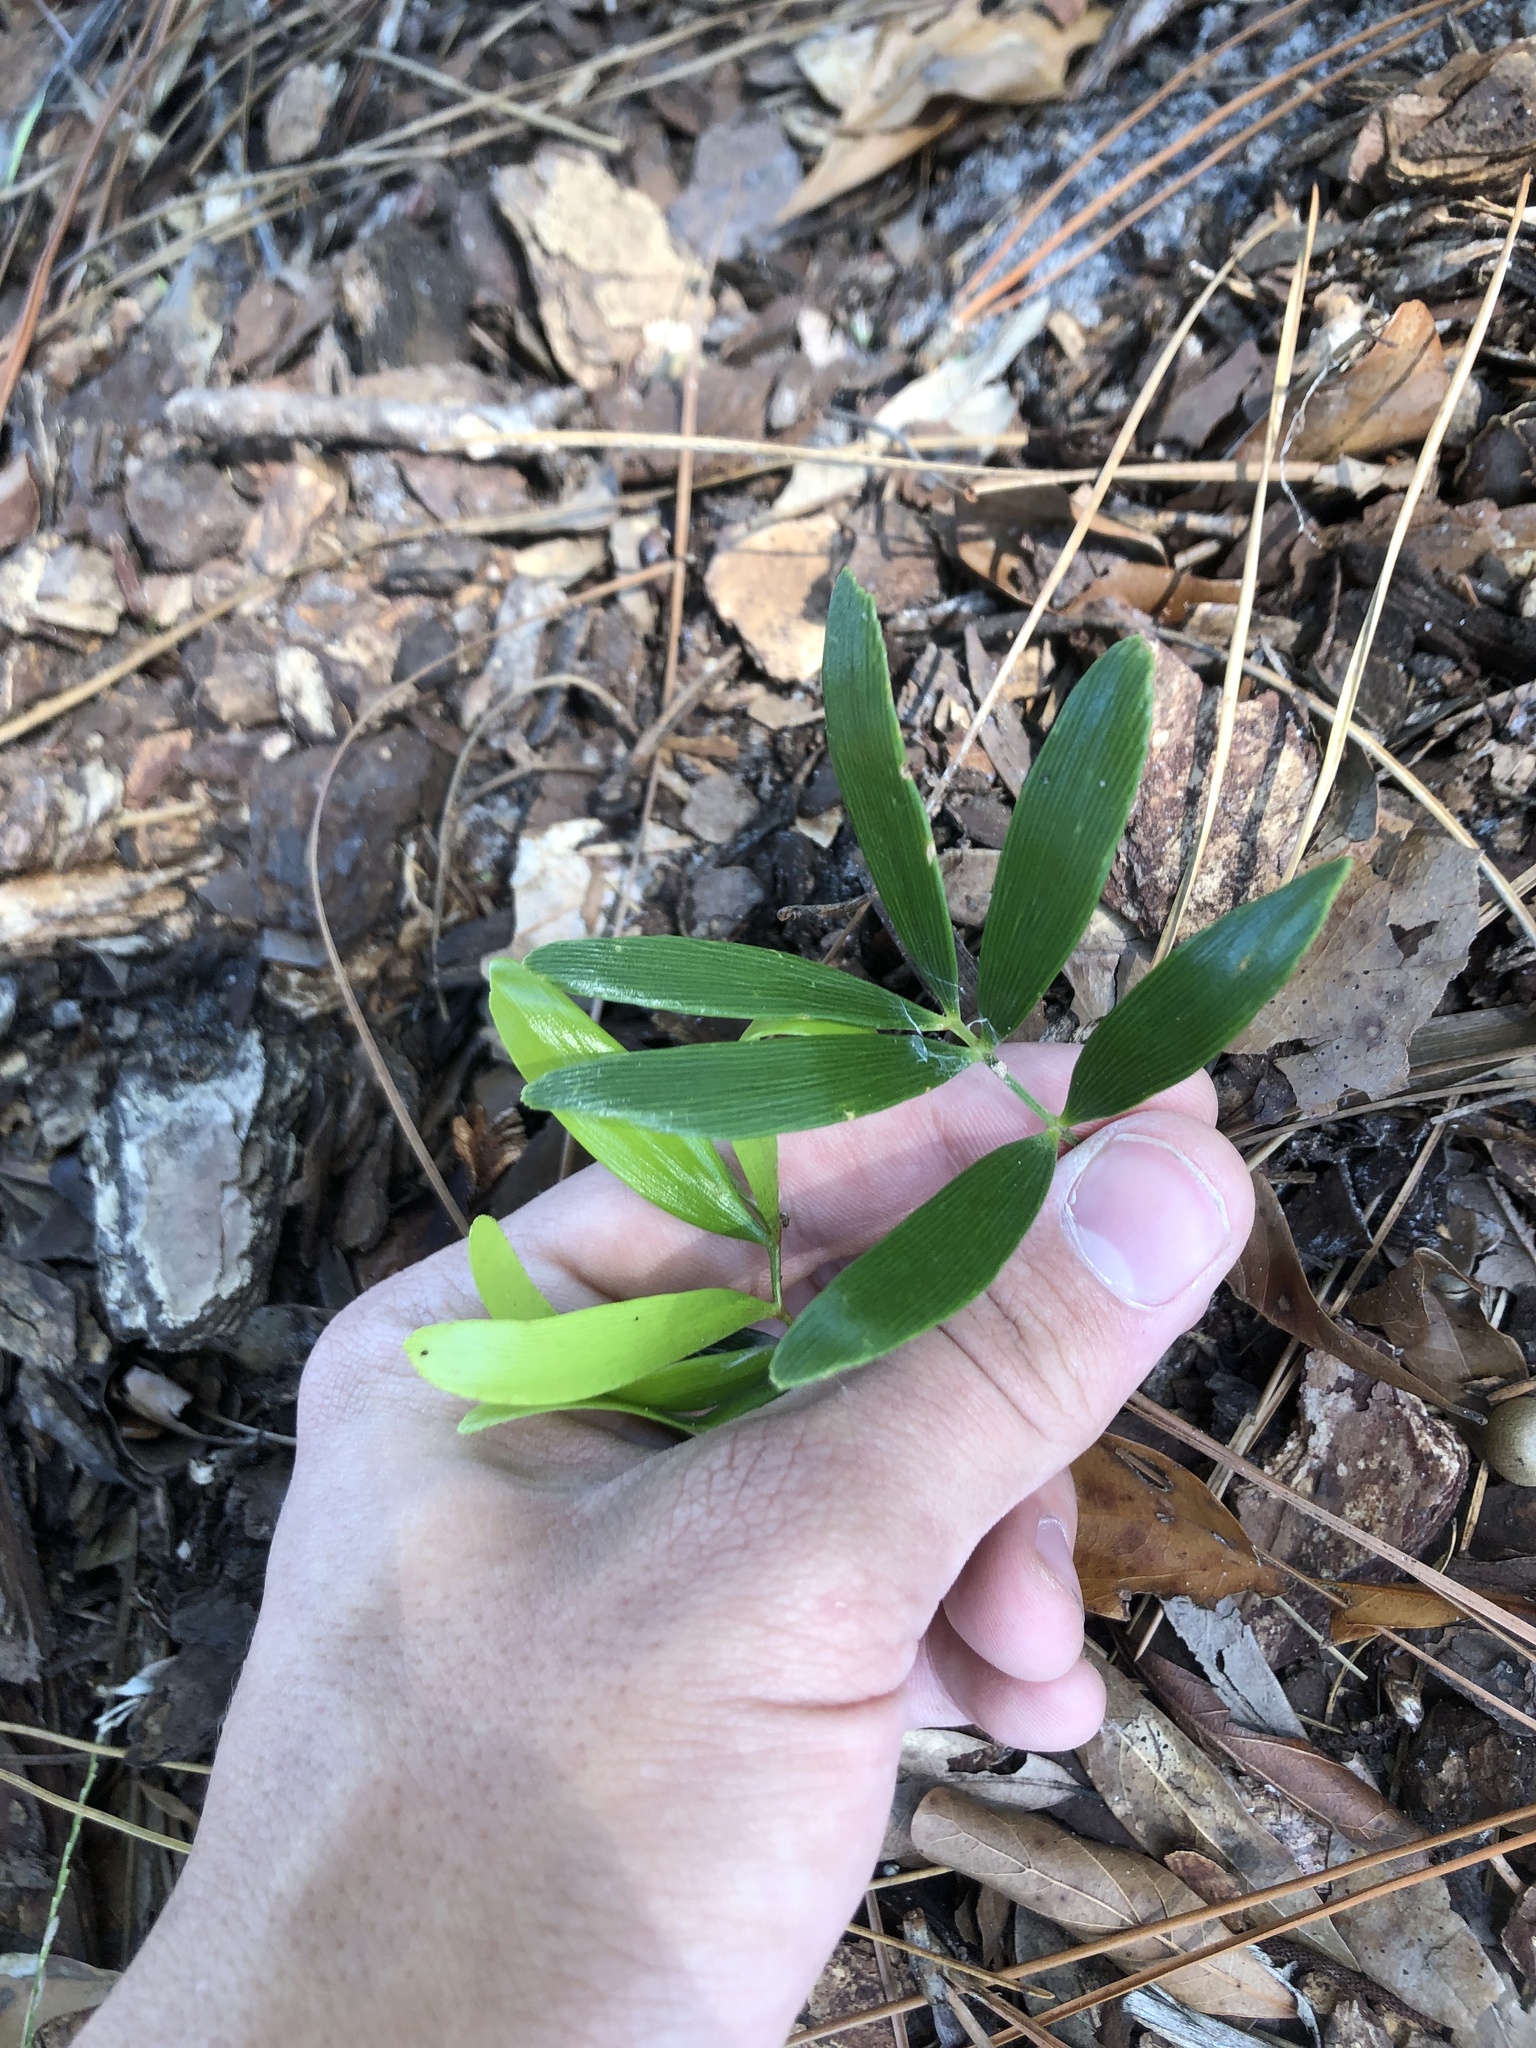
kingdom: Plantae
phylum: Tracheophyta
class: Cycadopsida
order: Cycadales
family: Zamiaceae
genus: Zamia
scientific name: Zamia integrifolia
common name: Florida arrowroot
